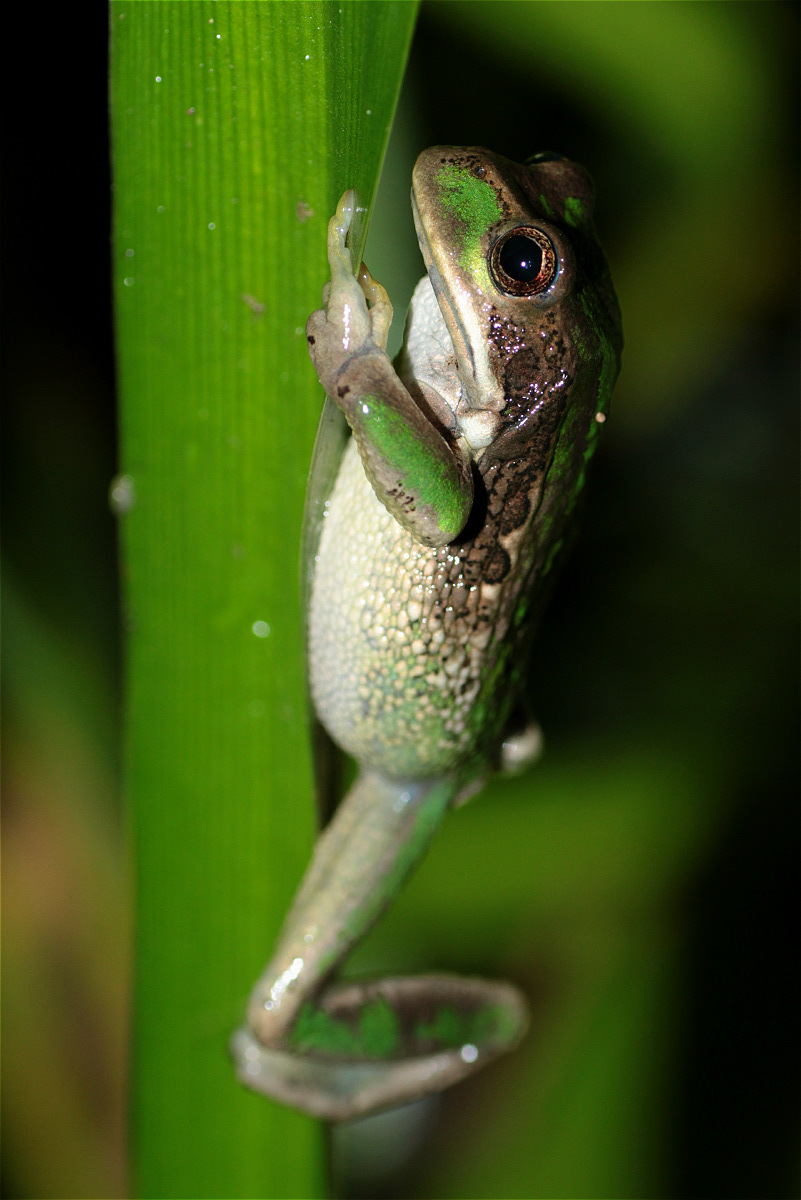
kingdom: Animalia
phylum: Chordata
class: Amphibia
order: Anura
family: Hemiphractidae
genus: Gastrotheca
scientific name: Gastrotheca cuencana
